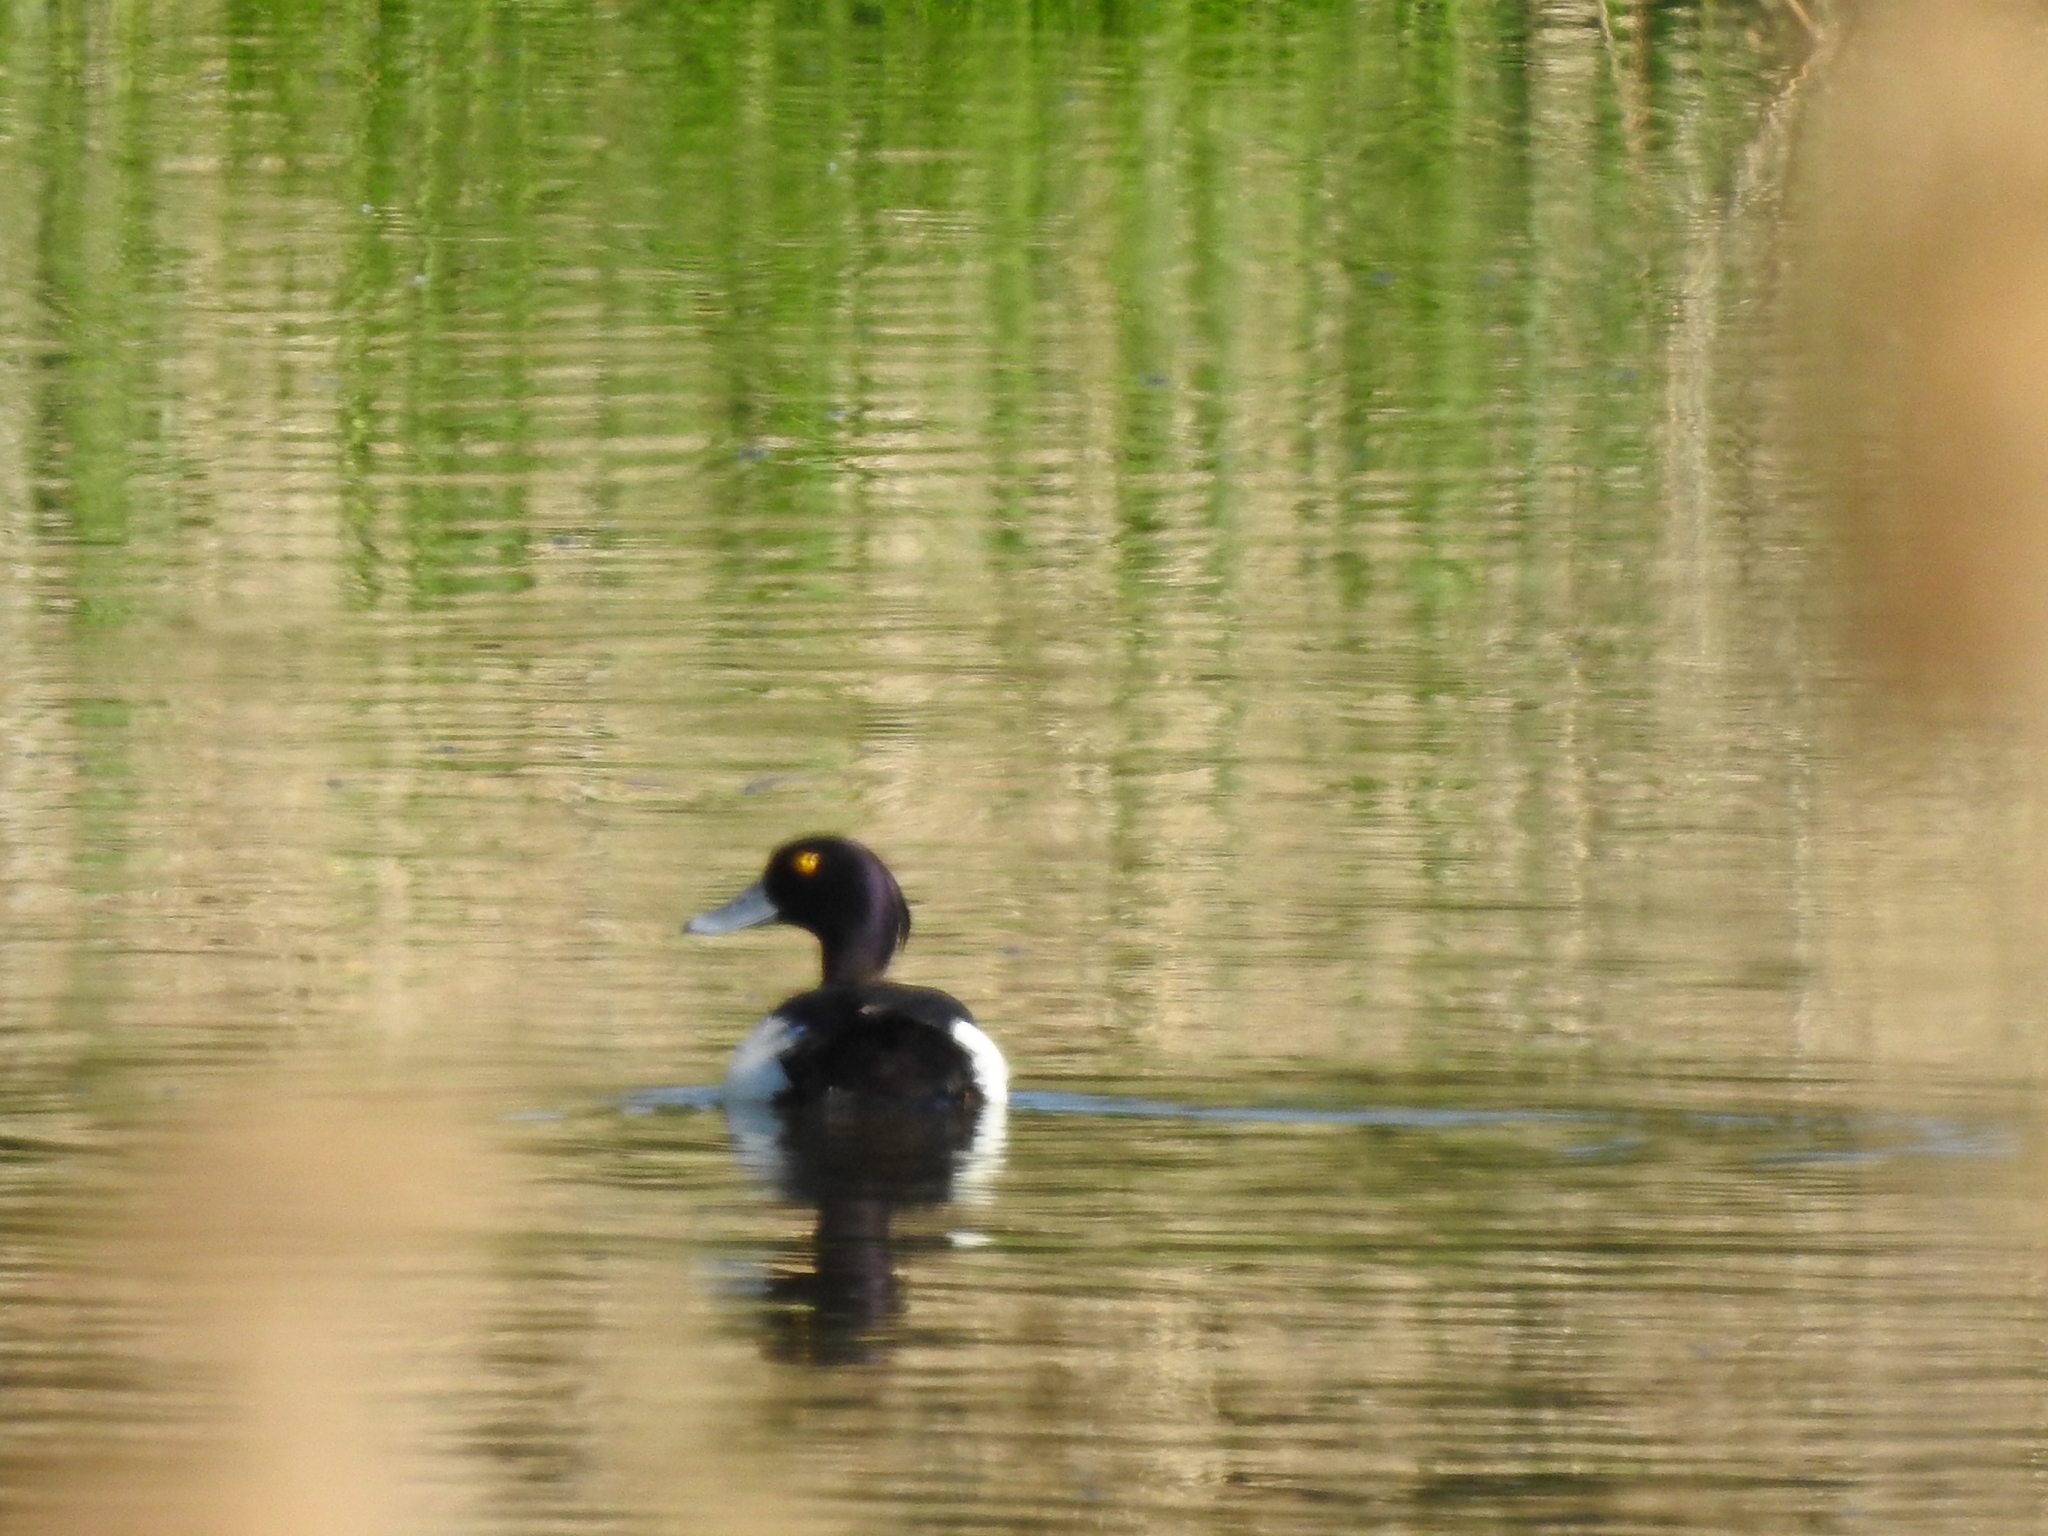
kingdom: Animalia
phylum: Chordata
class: Aves
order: Anseriformes
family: Anatidae
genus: Aythya
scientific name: Aythya fuligula
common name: Tufted duck
